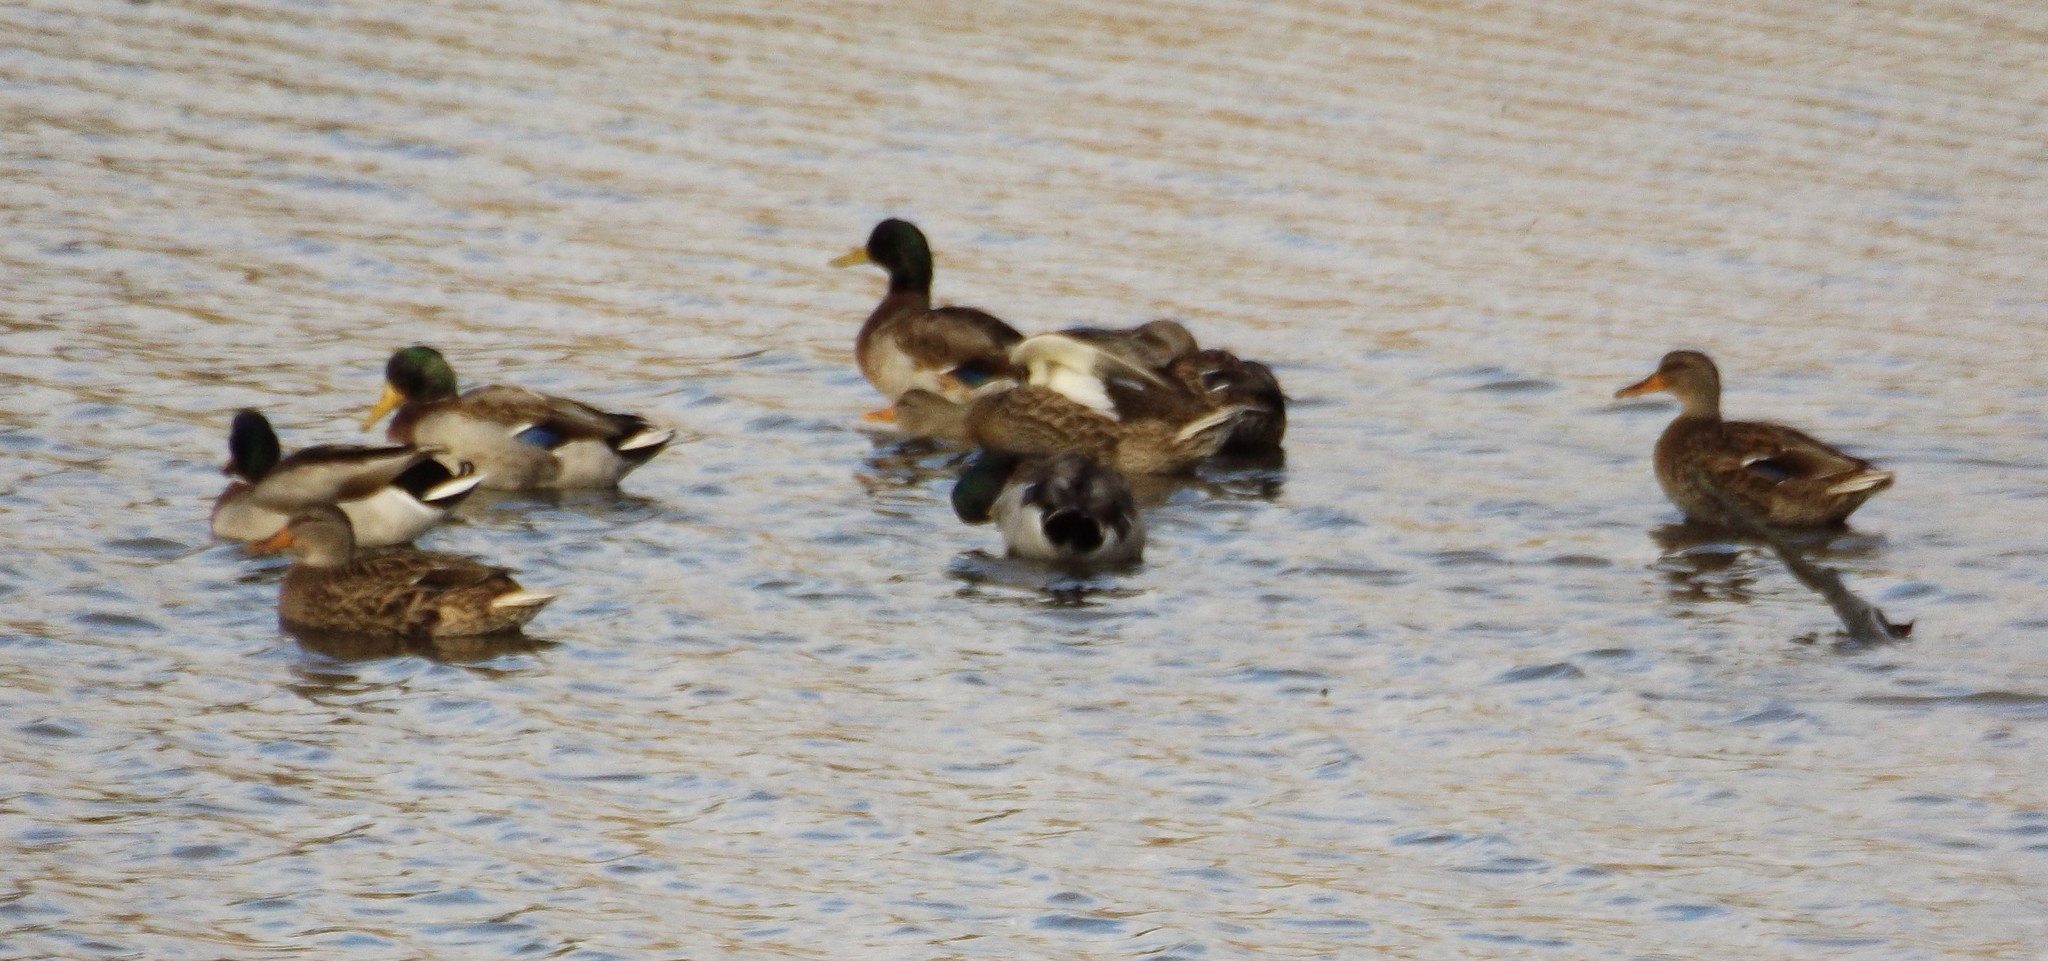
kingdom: Animalia
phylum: Chordata
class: Aves
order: Anseriformes
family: Anatidae
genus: Anas
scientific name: Anas platyrhynchos
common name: Mallard
